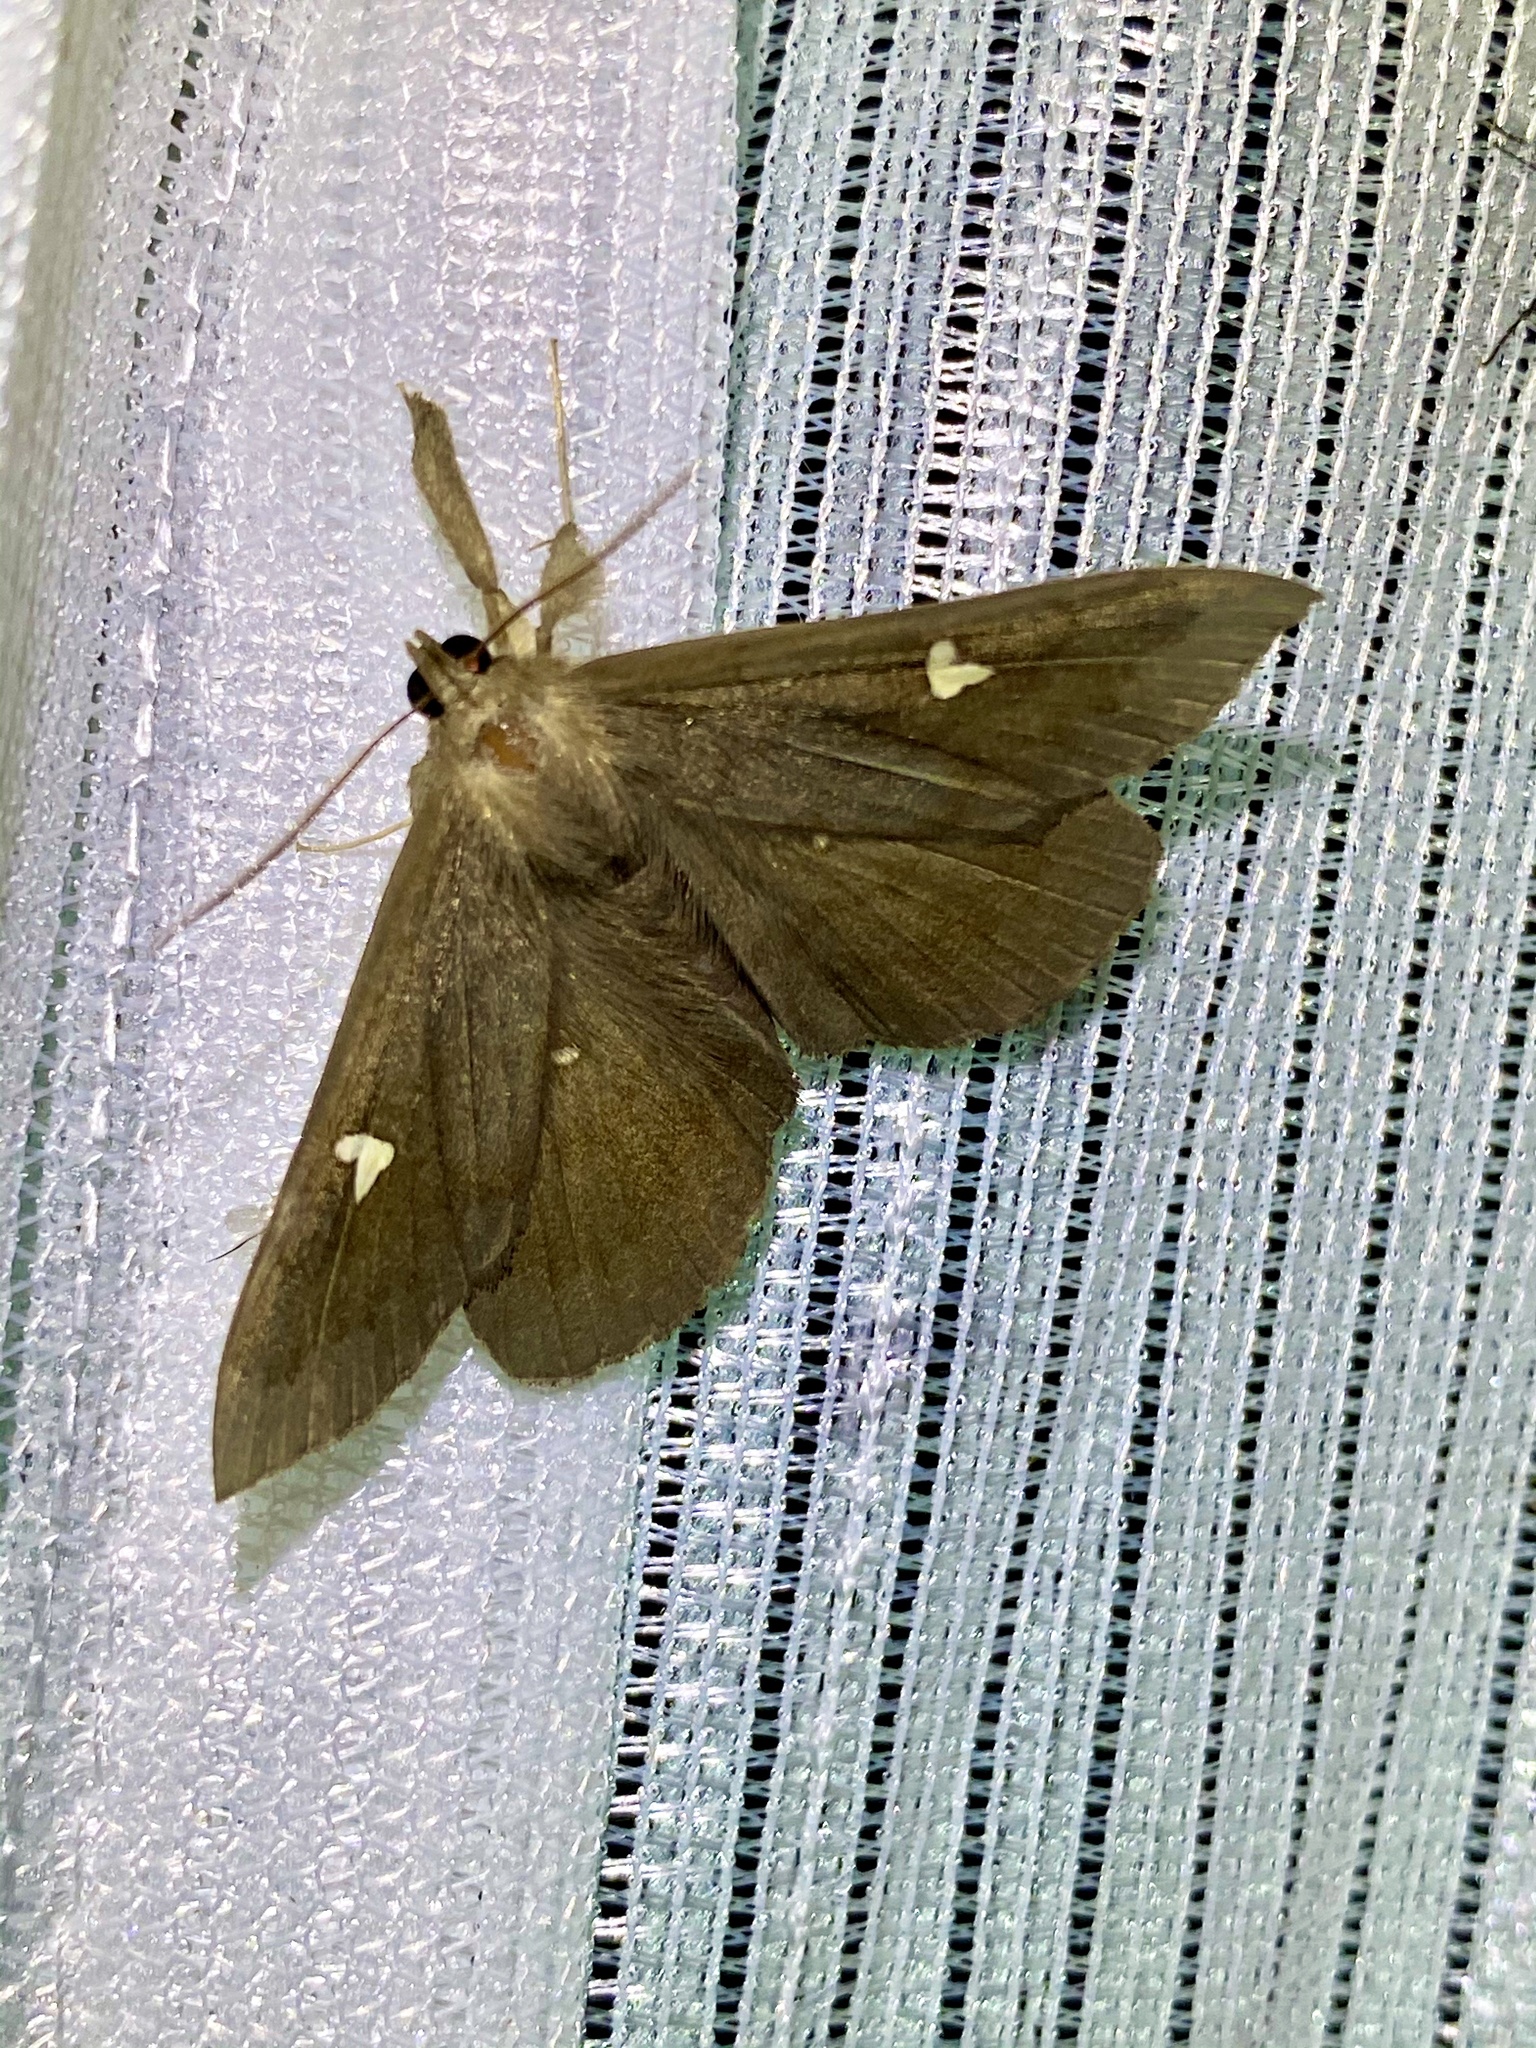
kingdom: Animalia
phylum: Arthropoda
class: Insecta
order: Lepidoptera
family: Erebidae
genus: Edessena
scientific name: Edessena hamada
